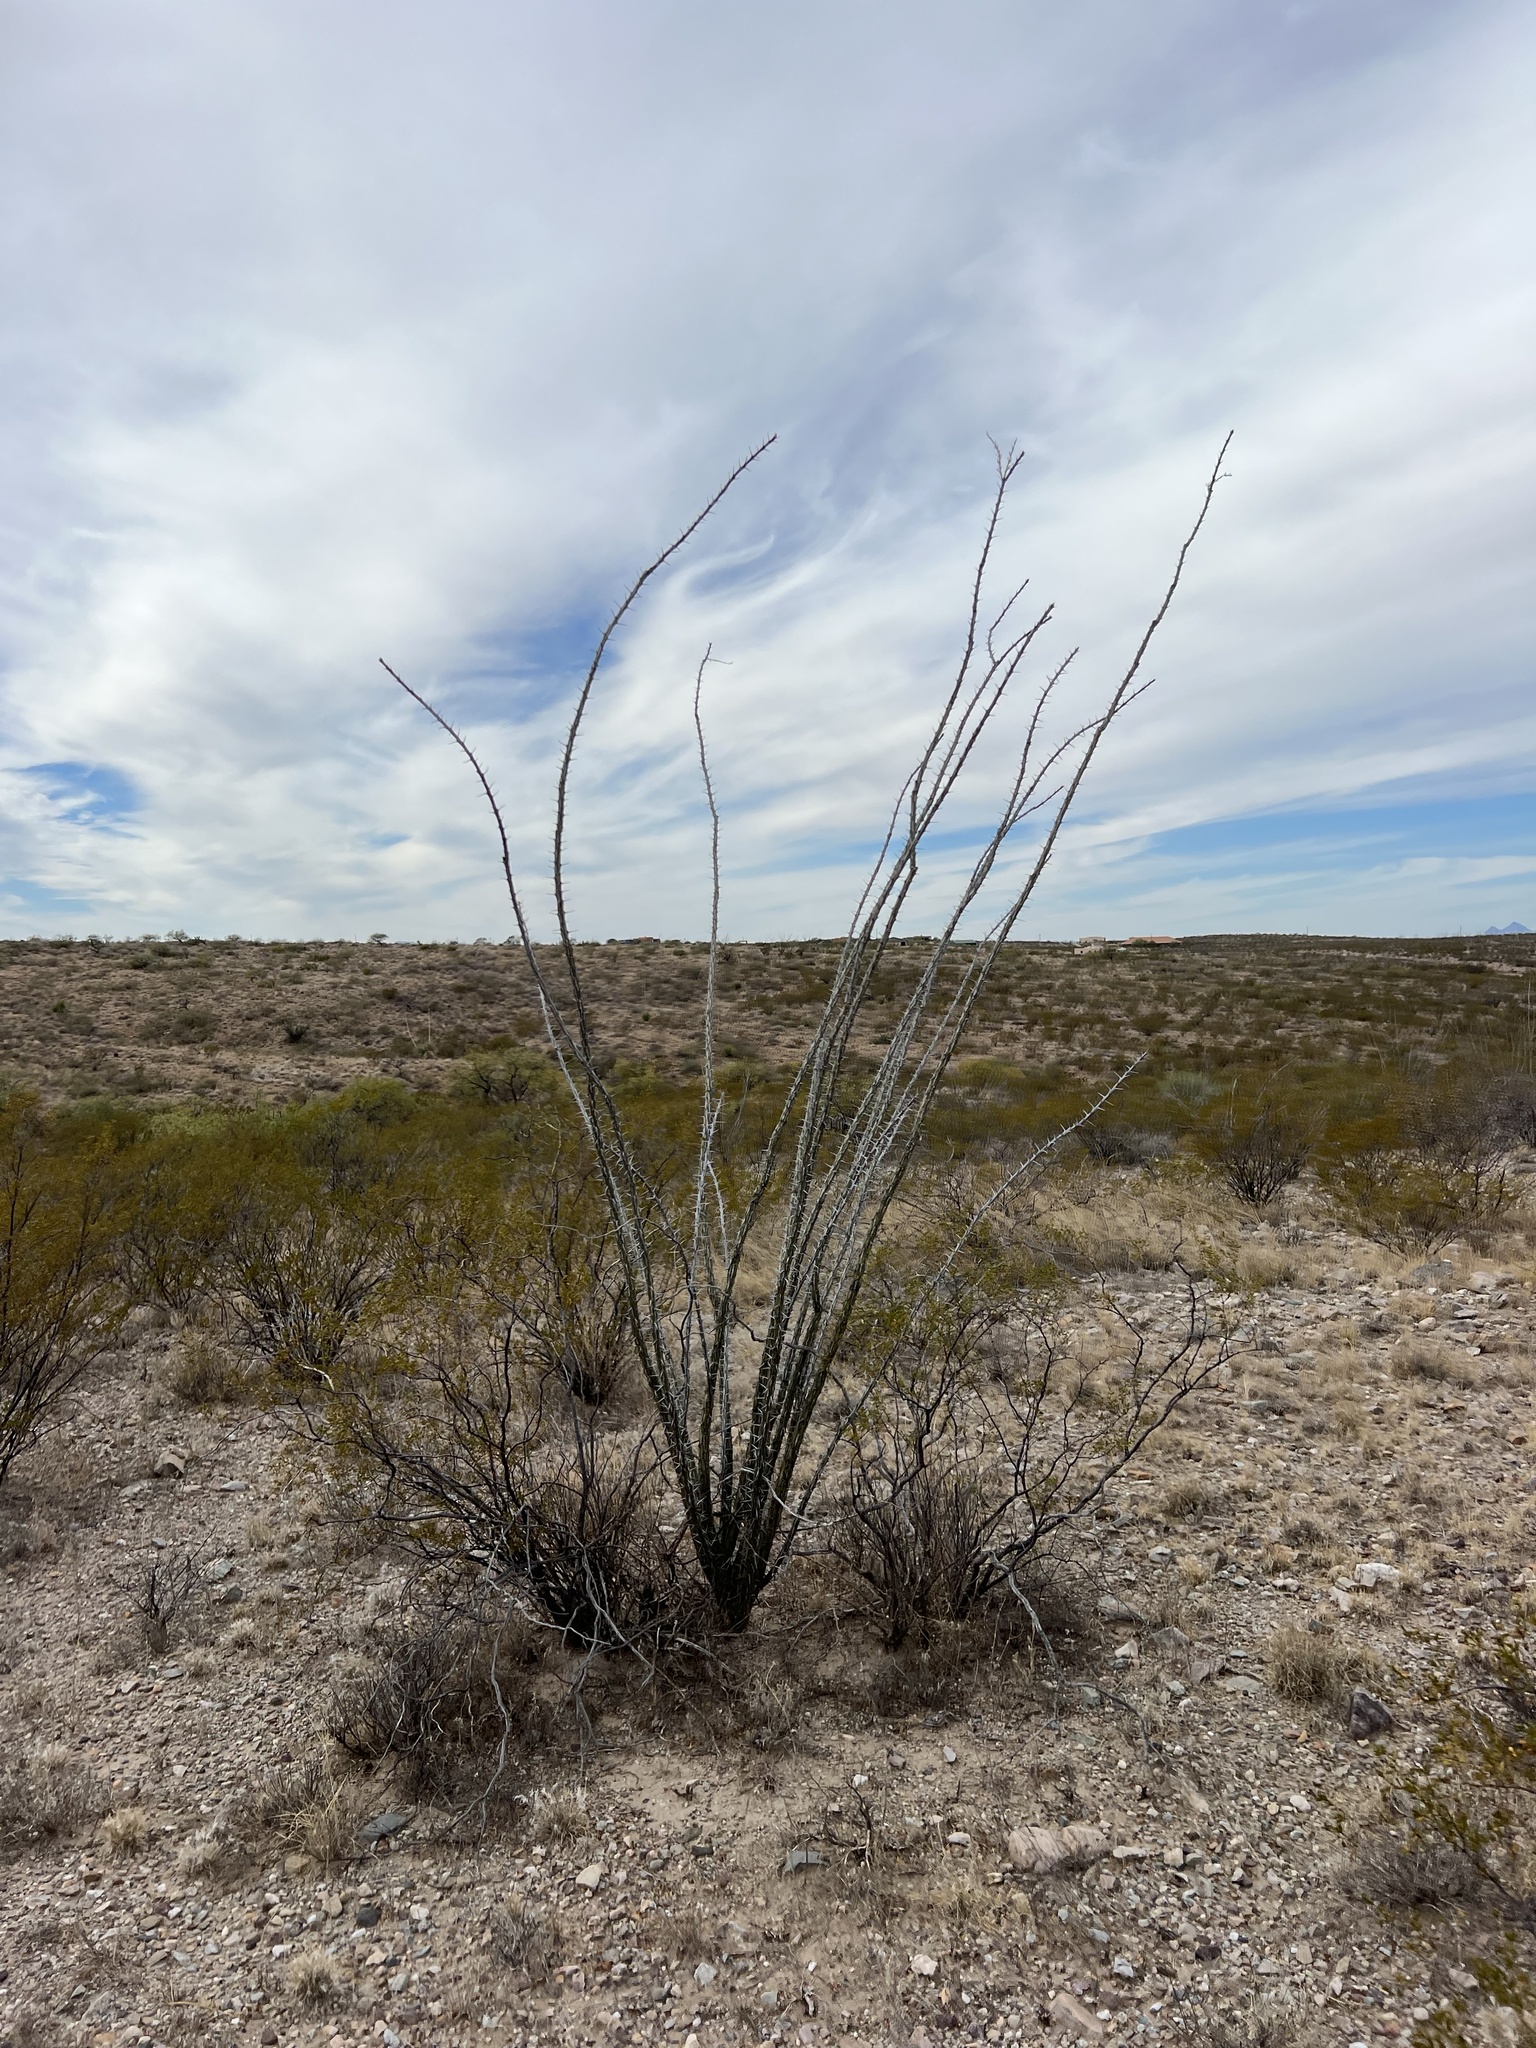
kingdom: Plantae
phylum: Tracheophyta
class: Magnoliopsida
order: Ericales
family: Fouquieriaceae
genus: Fouquieria
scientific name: Fouquieria splendens
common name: Vine-cactus
